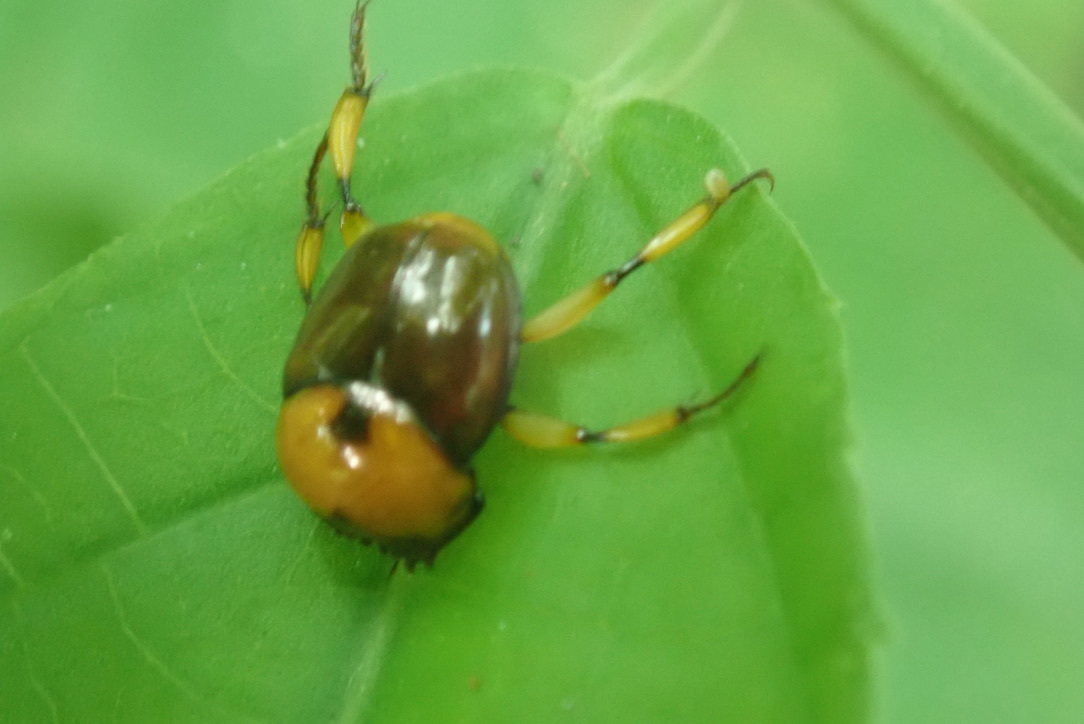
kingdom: Animalia
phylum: Arthropoda
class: Insecta
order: Coleoptera
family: Scarabaeidae
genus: Canthon
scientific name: Canthon angustatus
